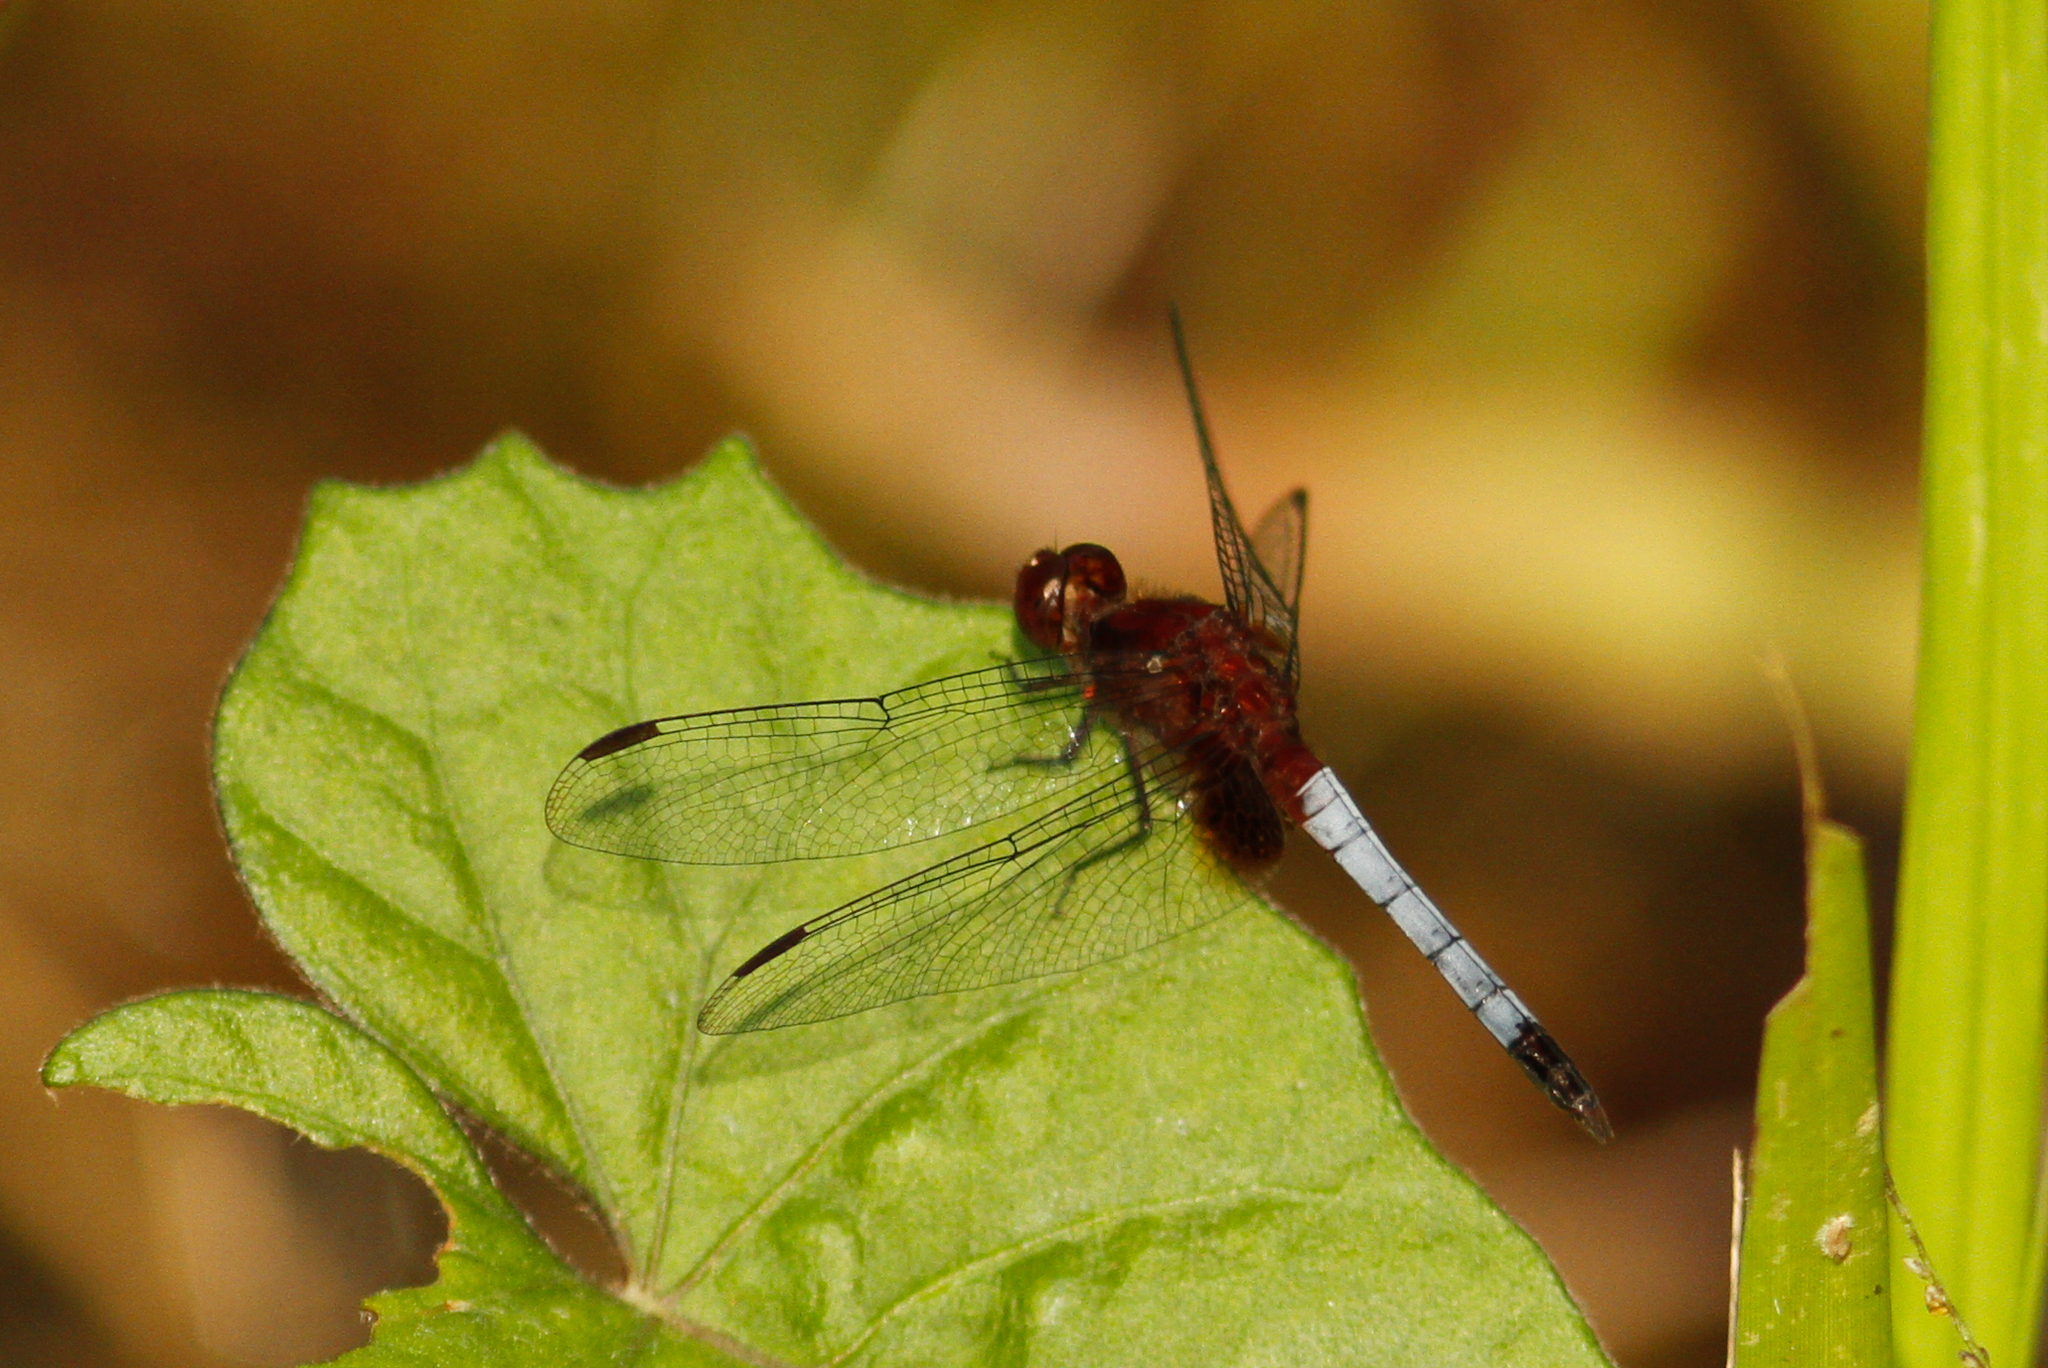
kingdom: Animalia
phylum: Arthropoda
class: Insecta
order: Odonata
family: Libellulidae
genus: Erythrodiplax
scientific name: Erythrodiplax fusca
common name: Red-faced dragonlet
